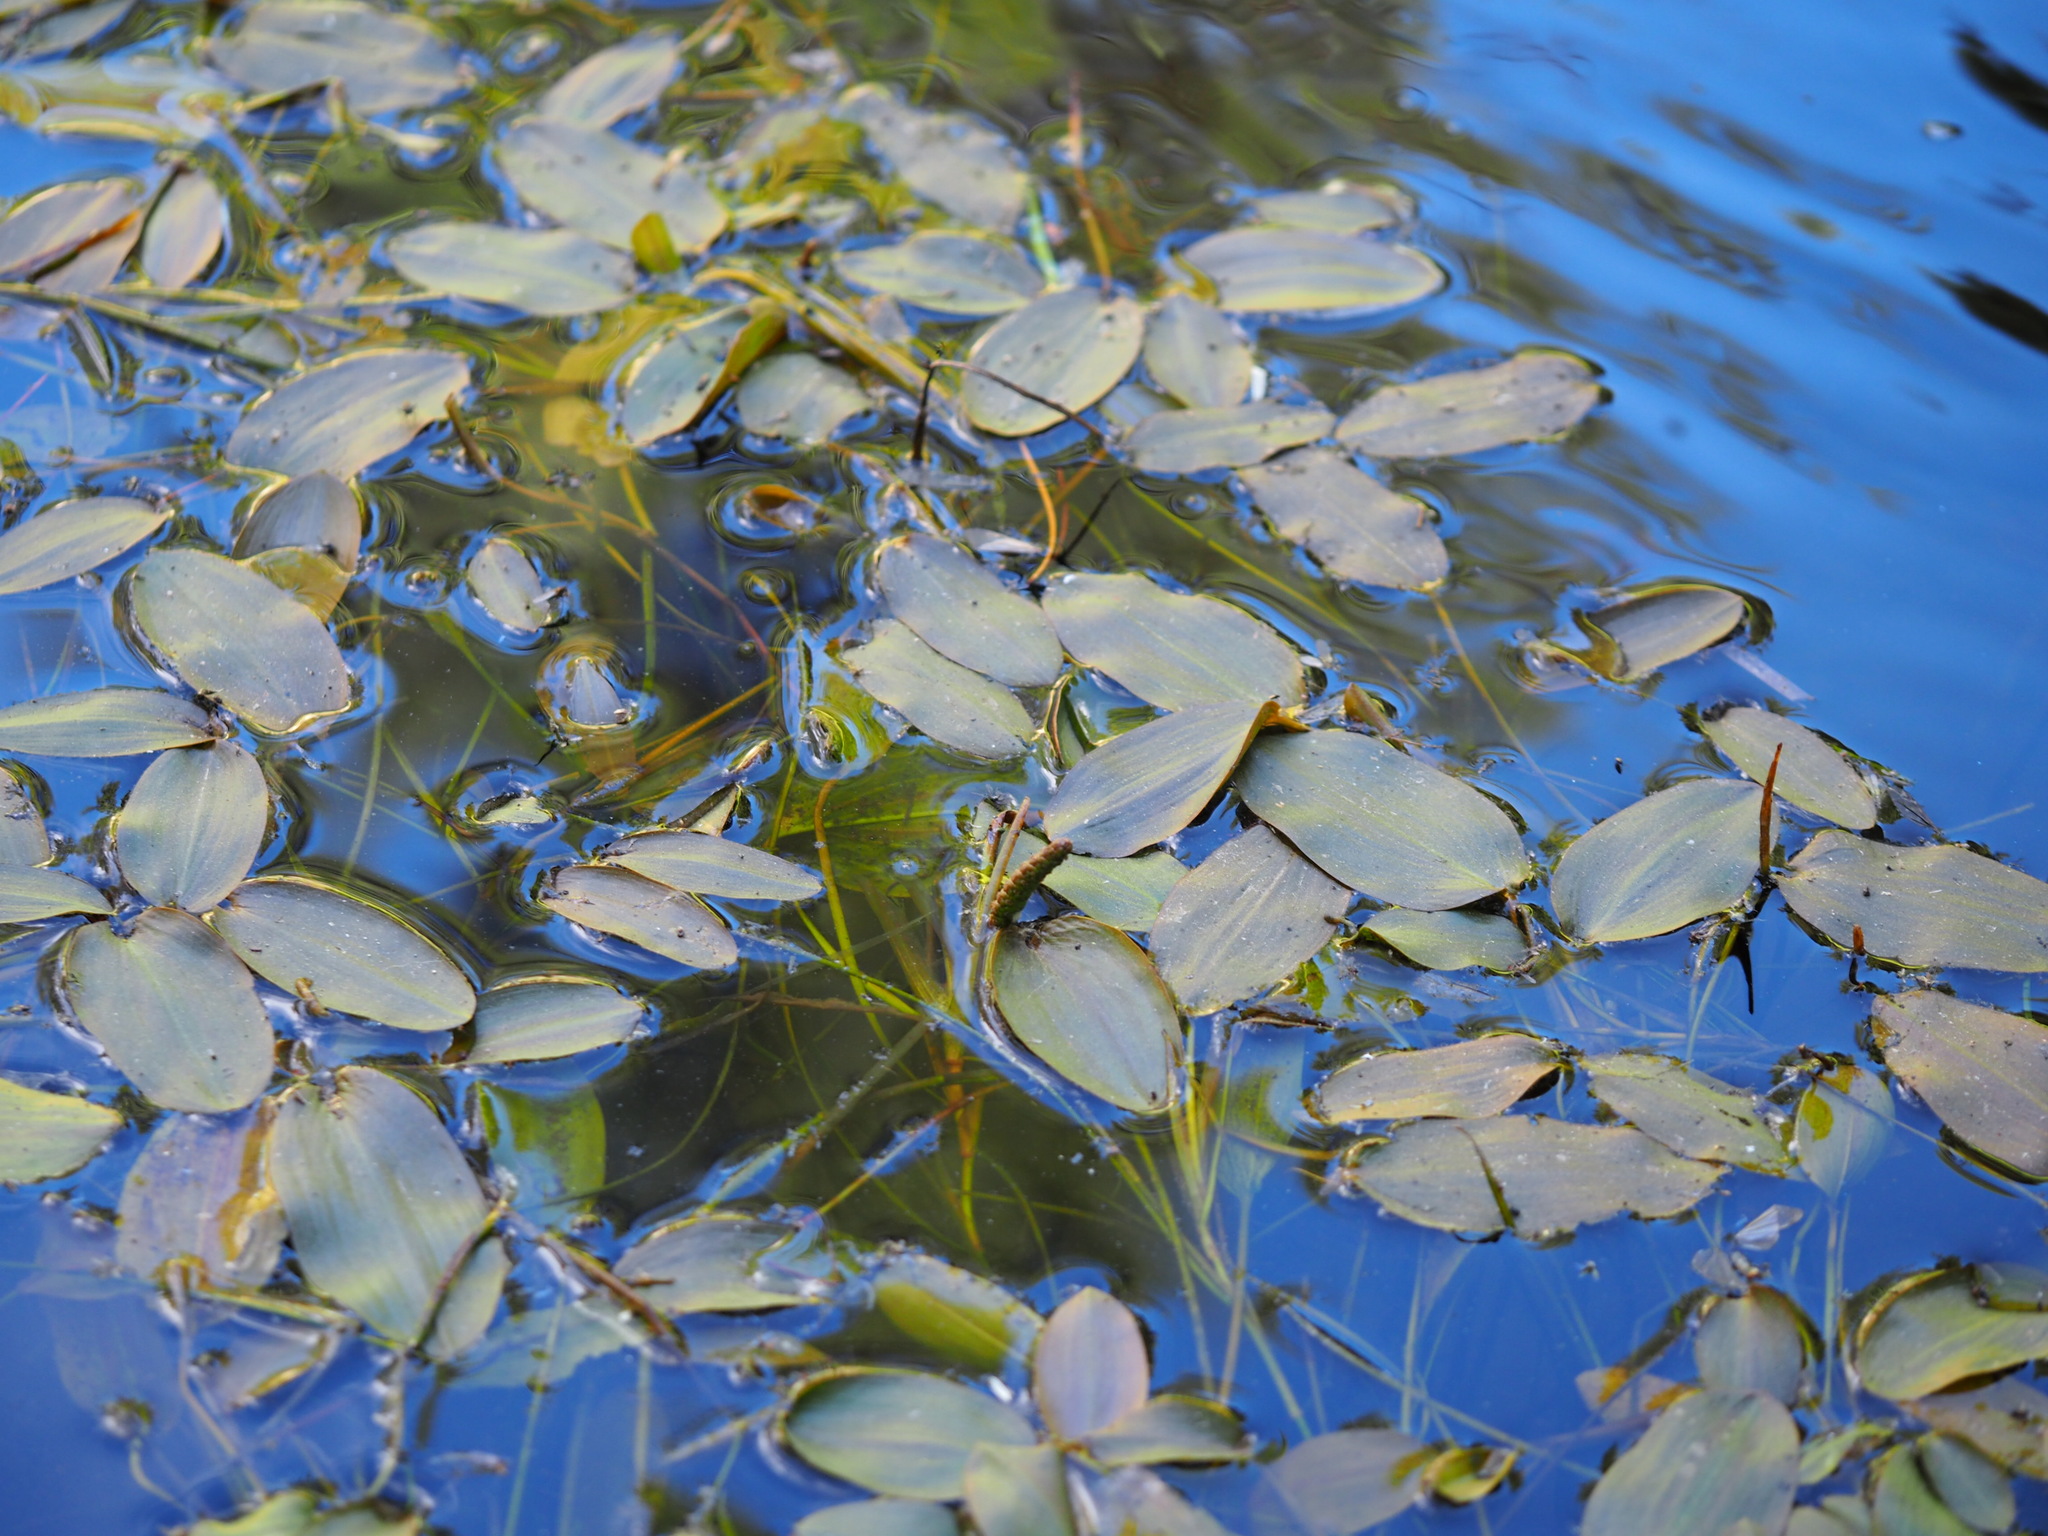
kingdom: Plantae
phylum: Tracheophyta
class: Liliopsida
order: Alismatales
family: Potamogetonaceae
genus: Potamogeton
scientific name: Potamogeton natans
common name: Broad-leaved pondweed
